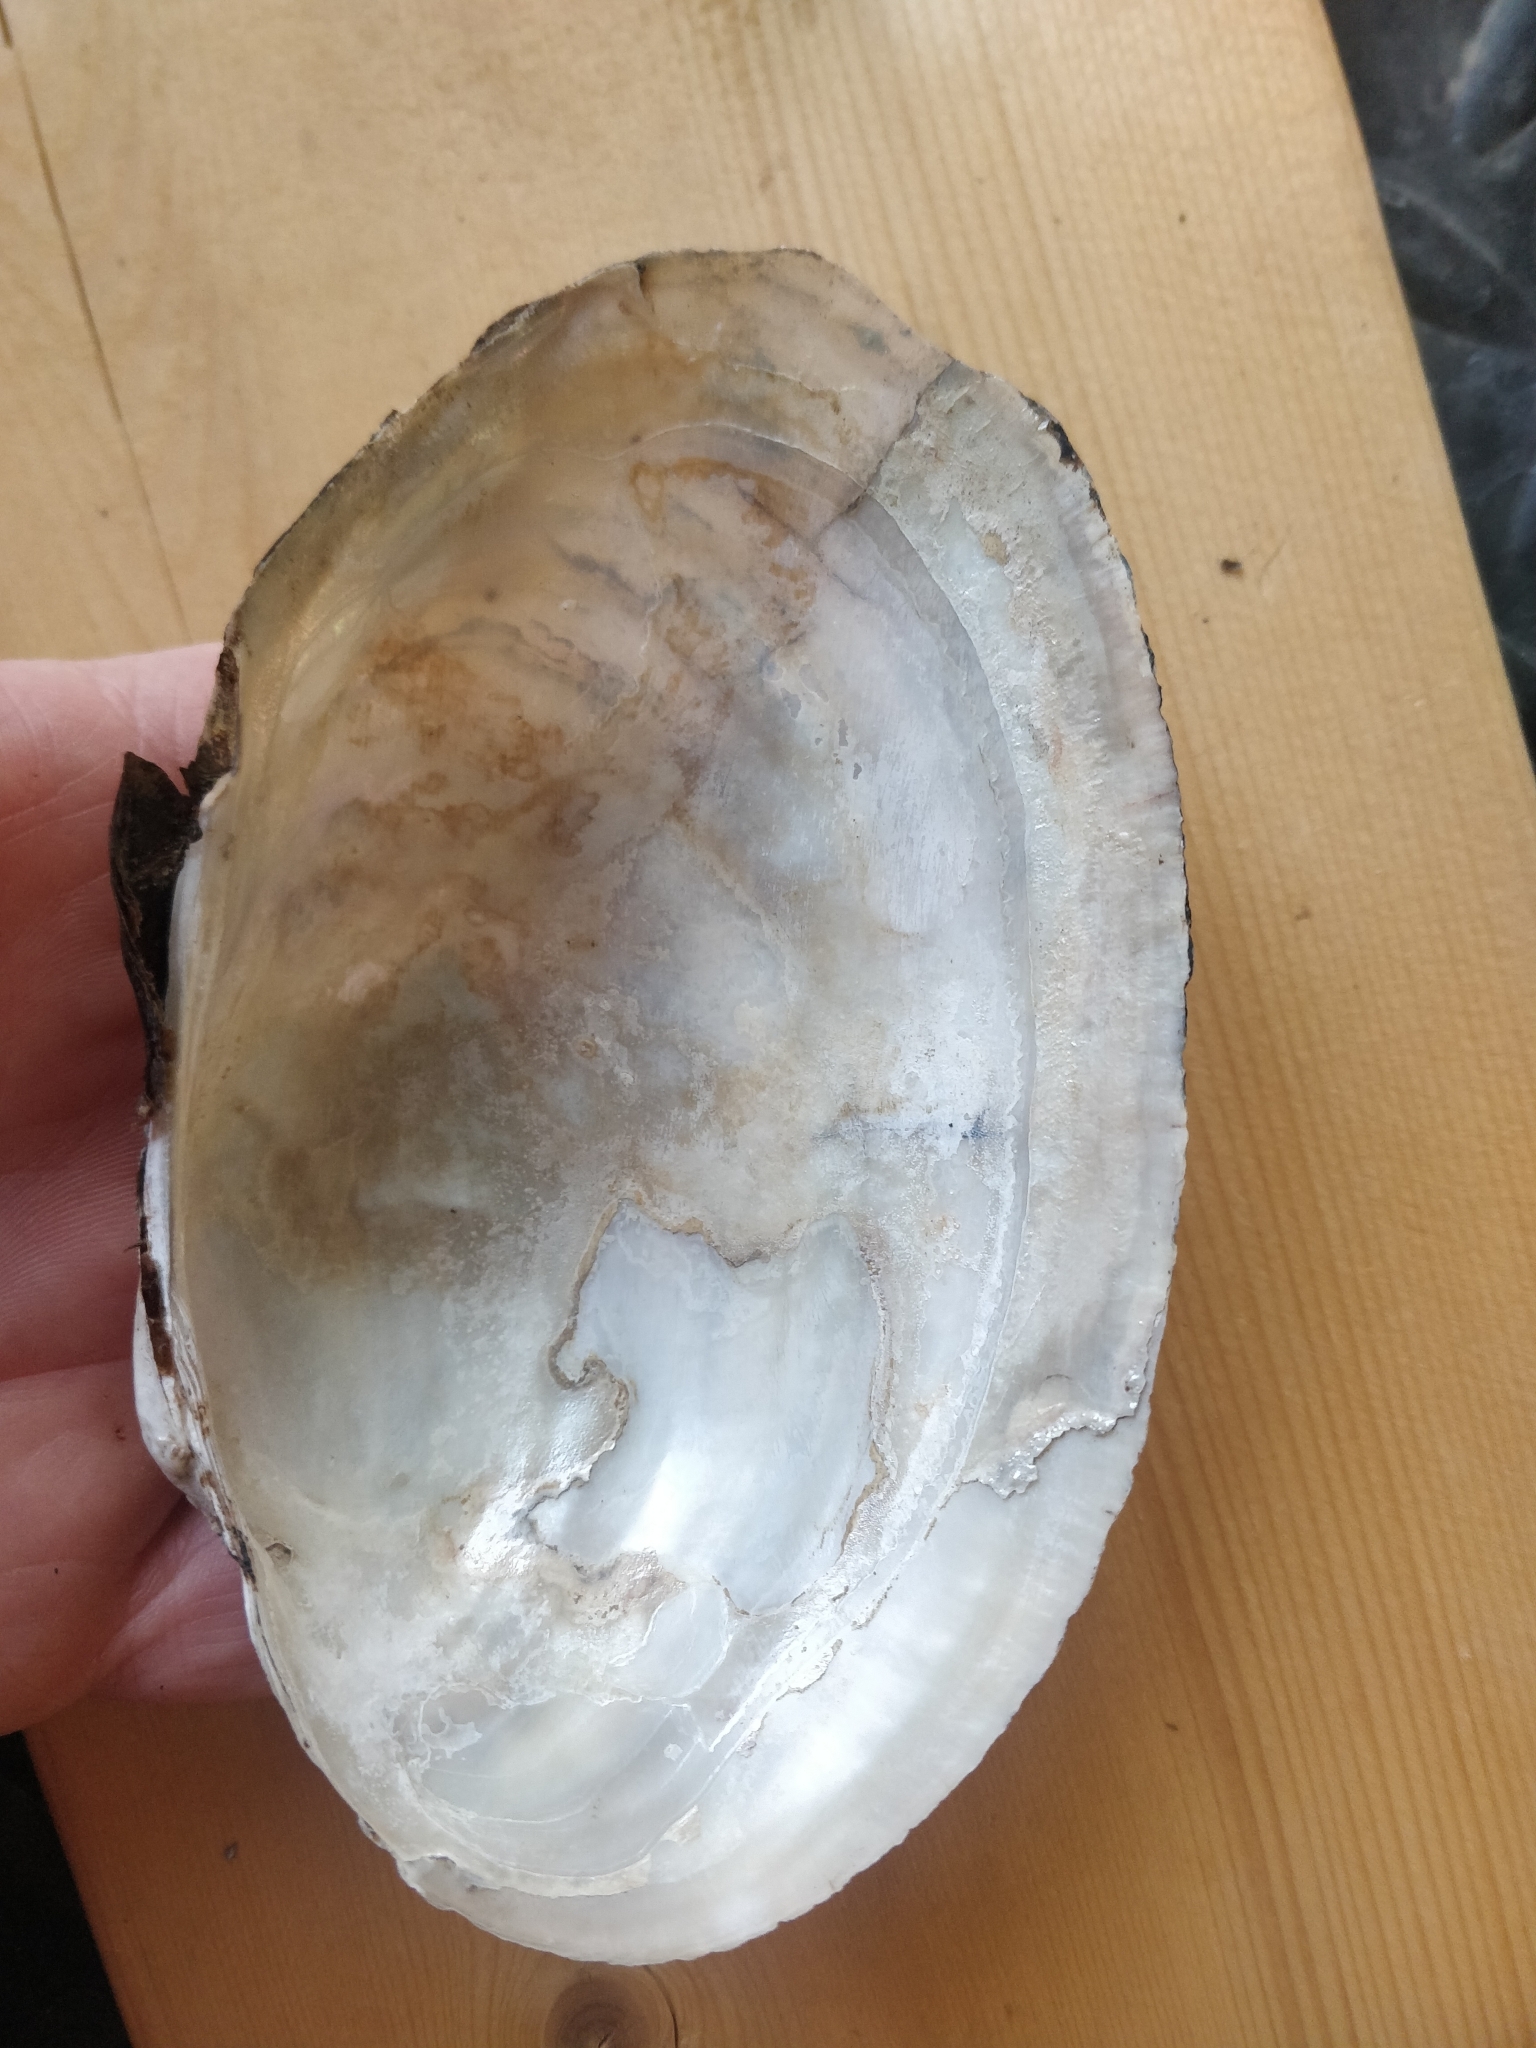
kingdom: Animalia
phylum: Mollusca
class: Bivalvia
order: Unionida
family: Unionidae
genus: Pyganodon
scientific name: Pyganodon grandis
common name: Giant floater
